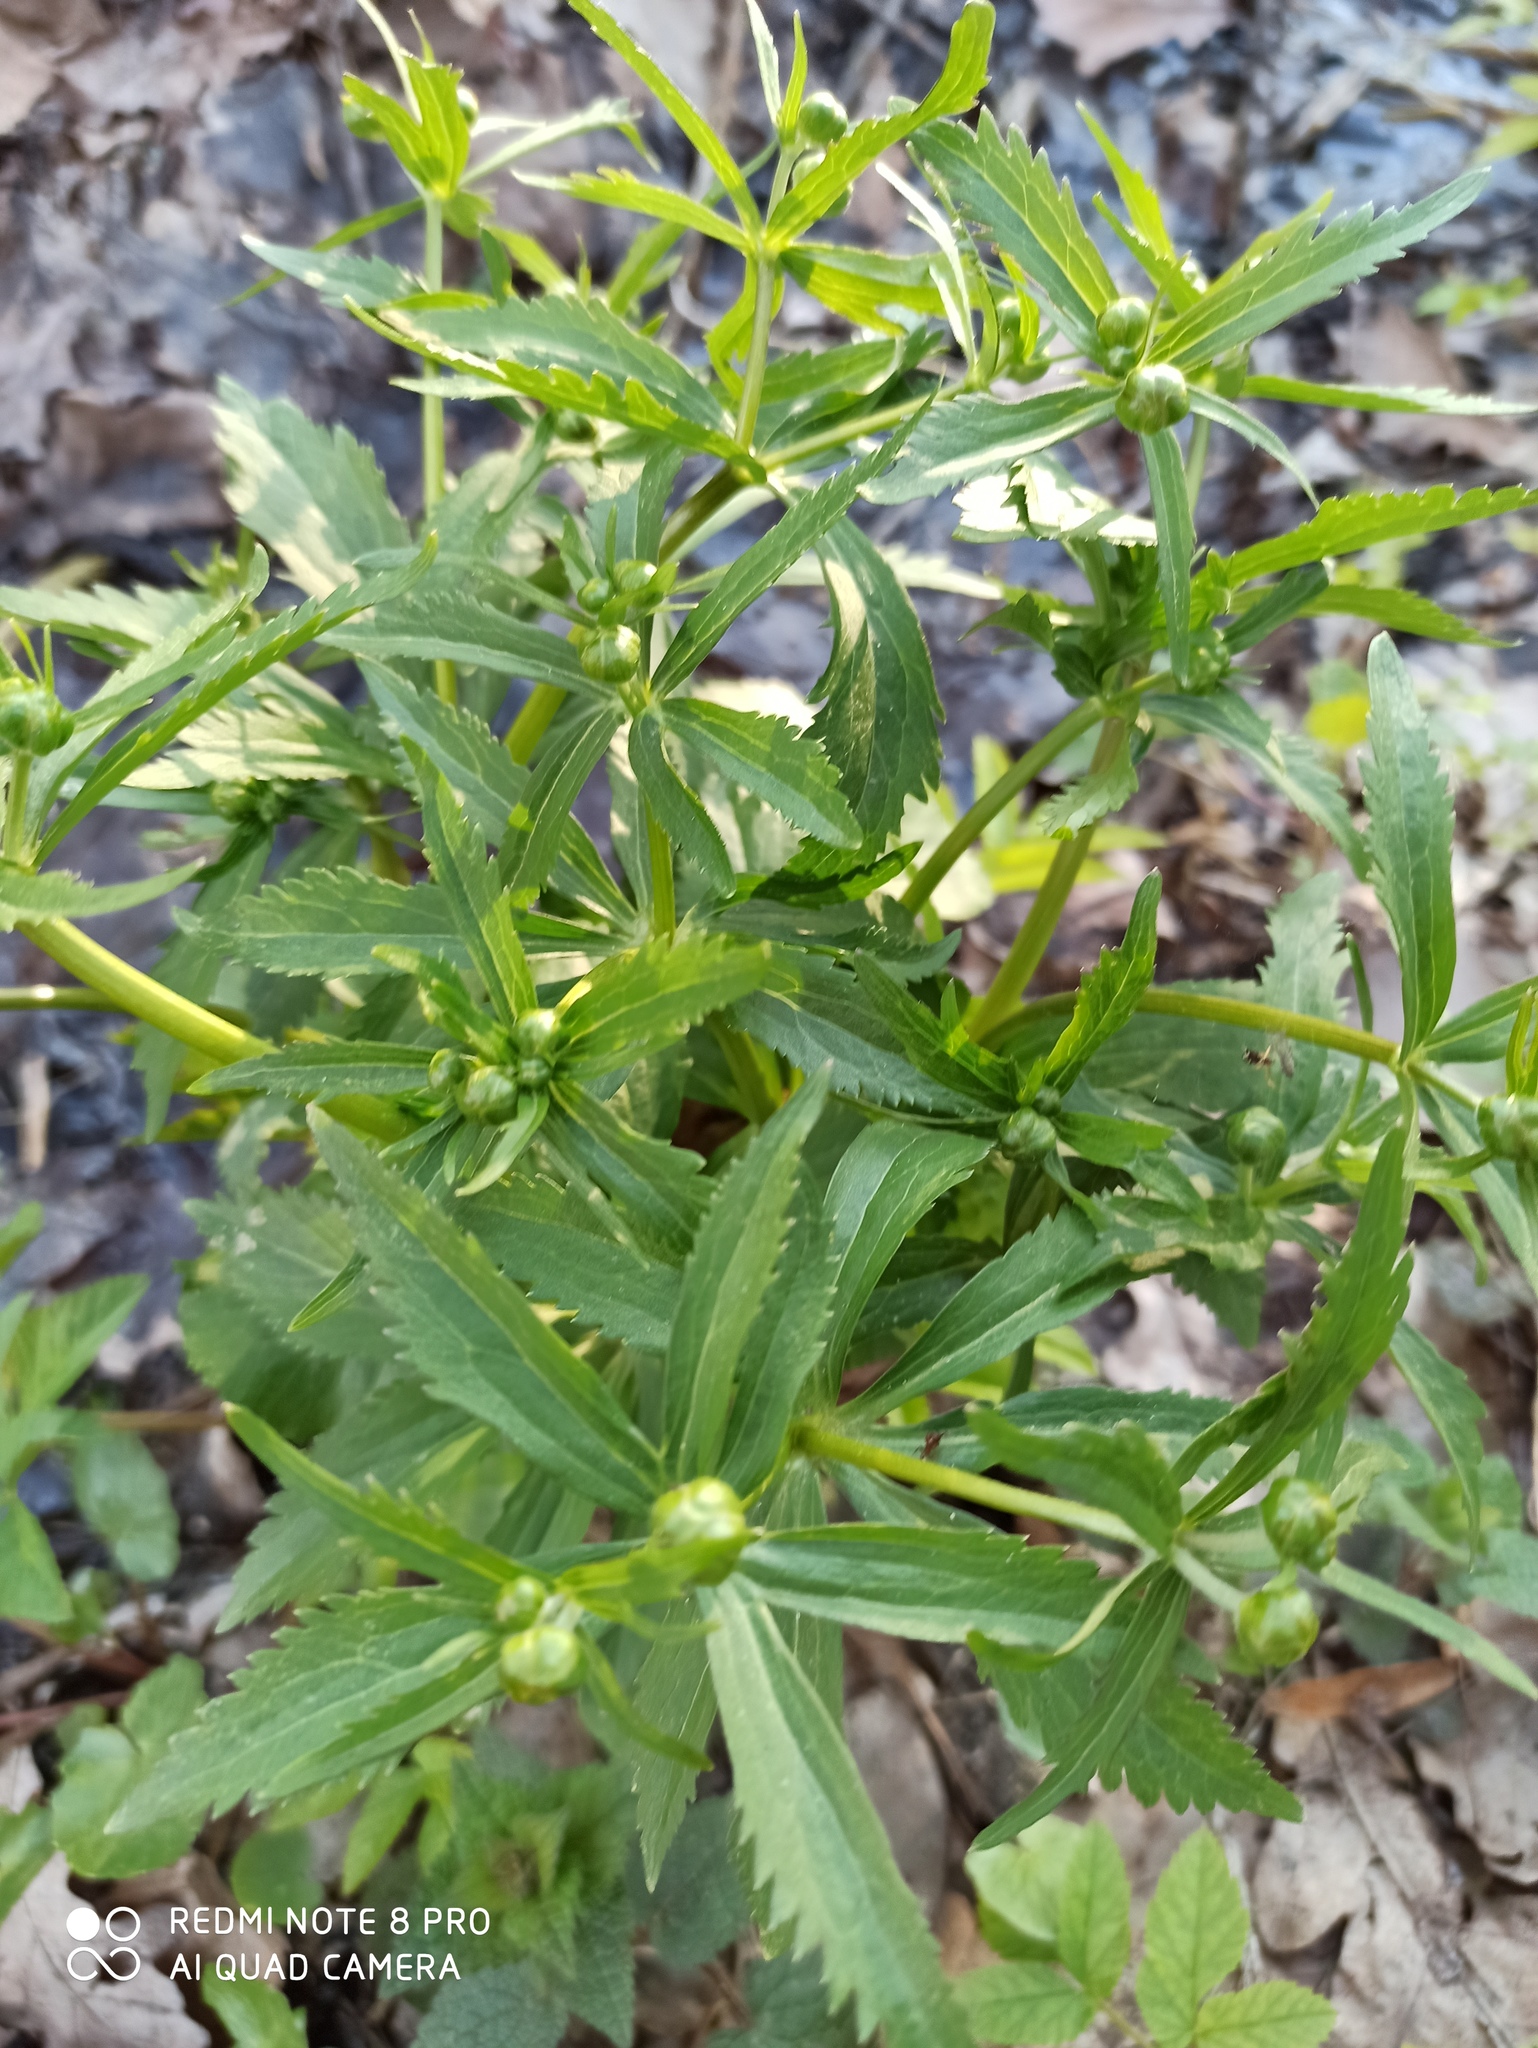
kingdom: Plantae
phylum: Tracheophyta
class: Magnoliopsida
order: Ranunculales
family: Ranunculaceae
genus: Ranunculus
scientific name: Ranunculus cassubicus
